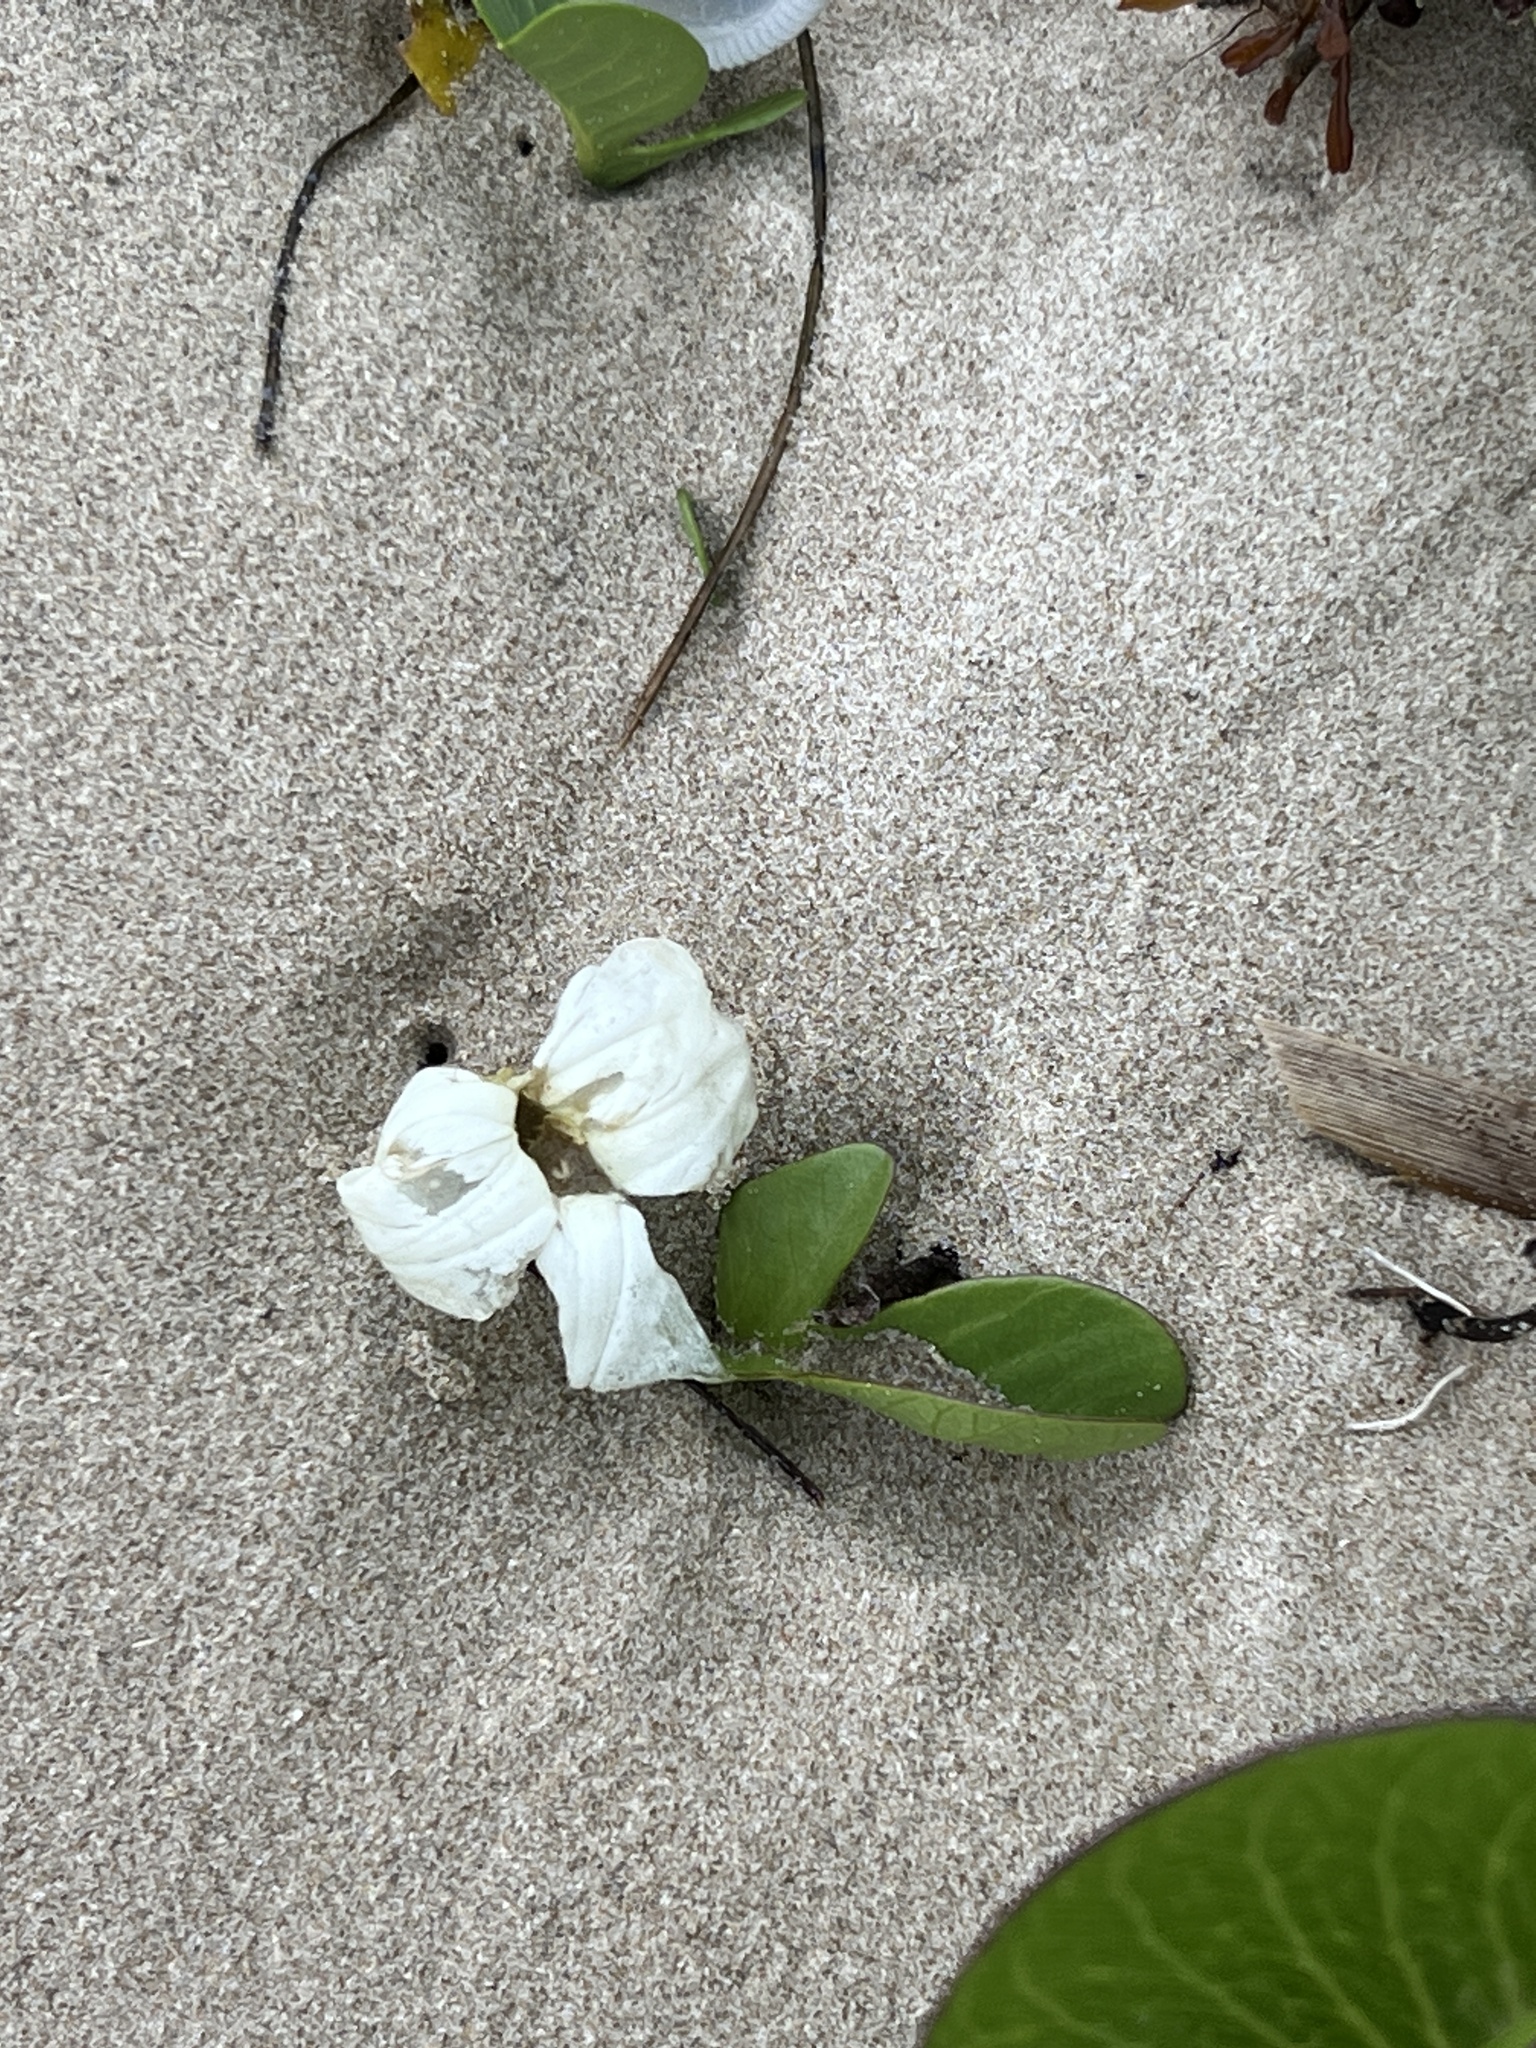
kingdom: Plantae
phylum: Tracheophyta
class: Magnoliopsida
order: Solanales
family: Convolvulaceae
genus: Ipomoea
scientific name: Ipomoea imperati
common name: Fiddle-leaf morning-glory
